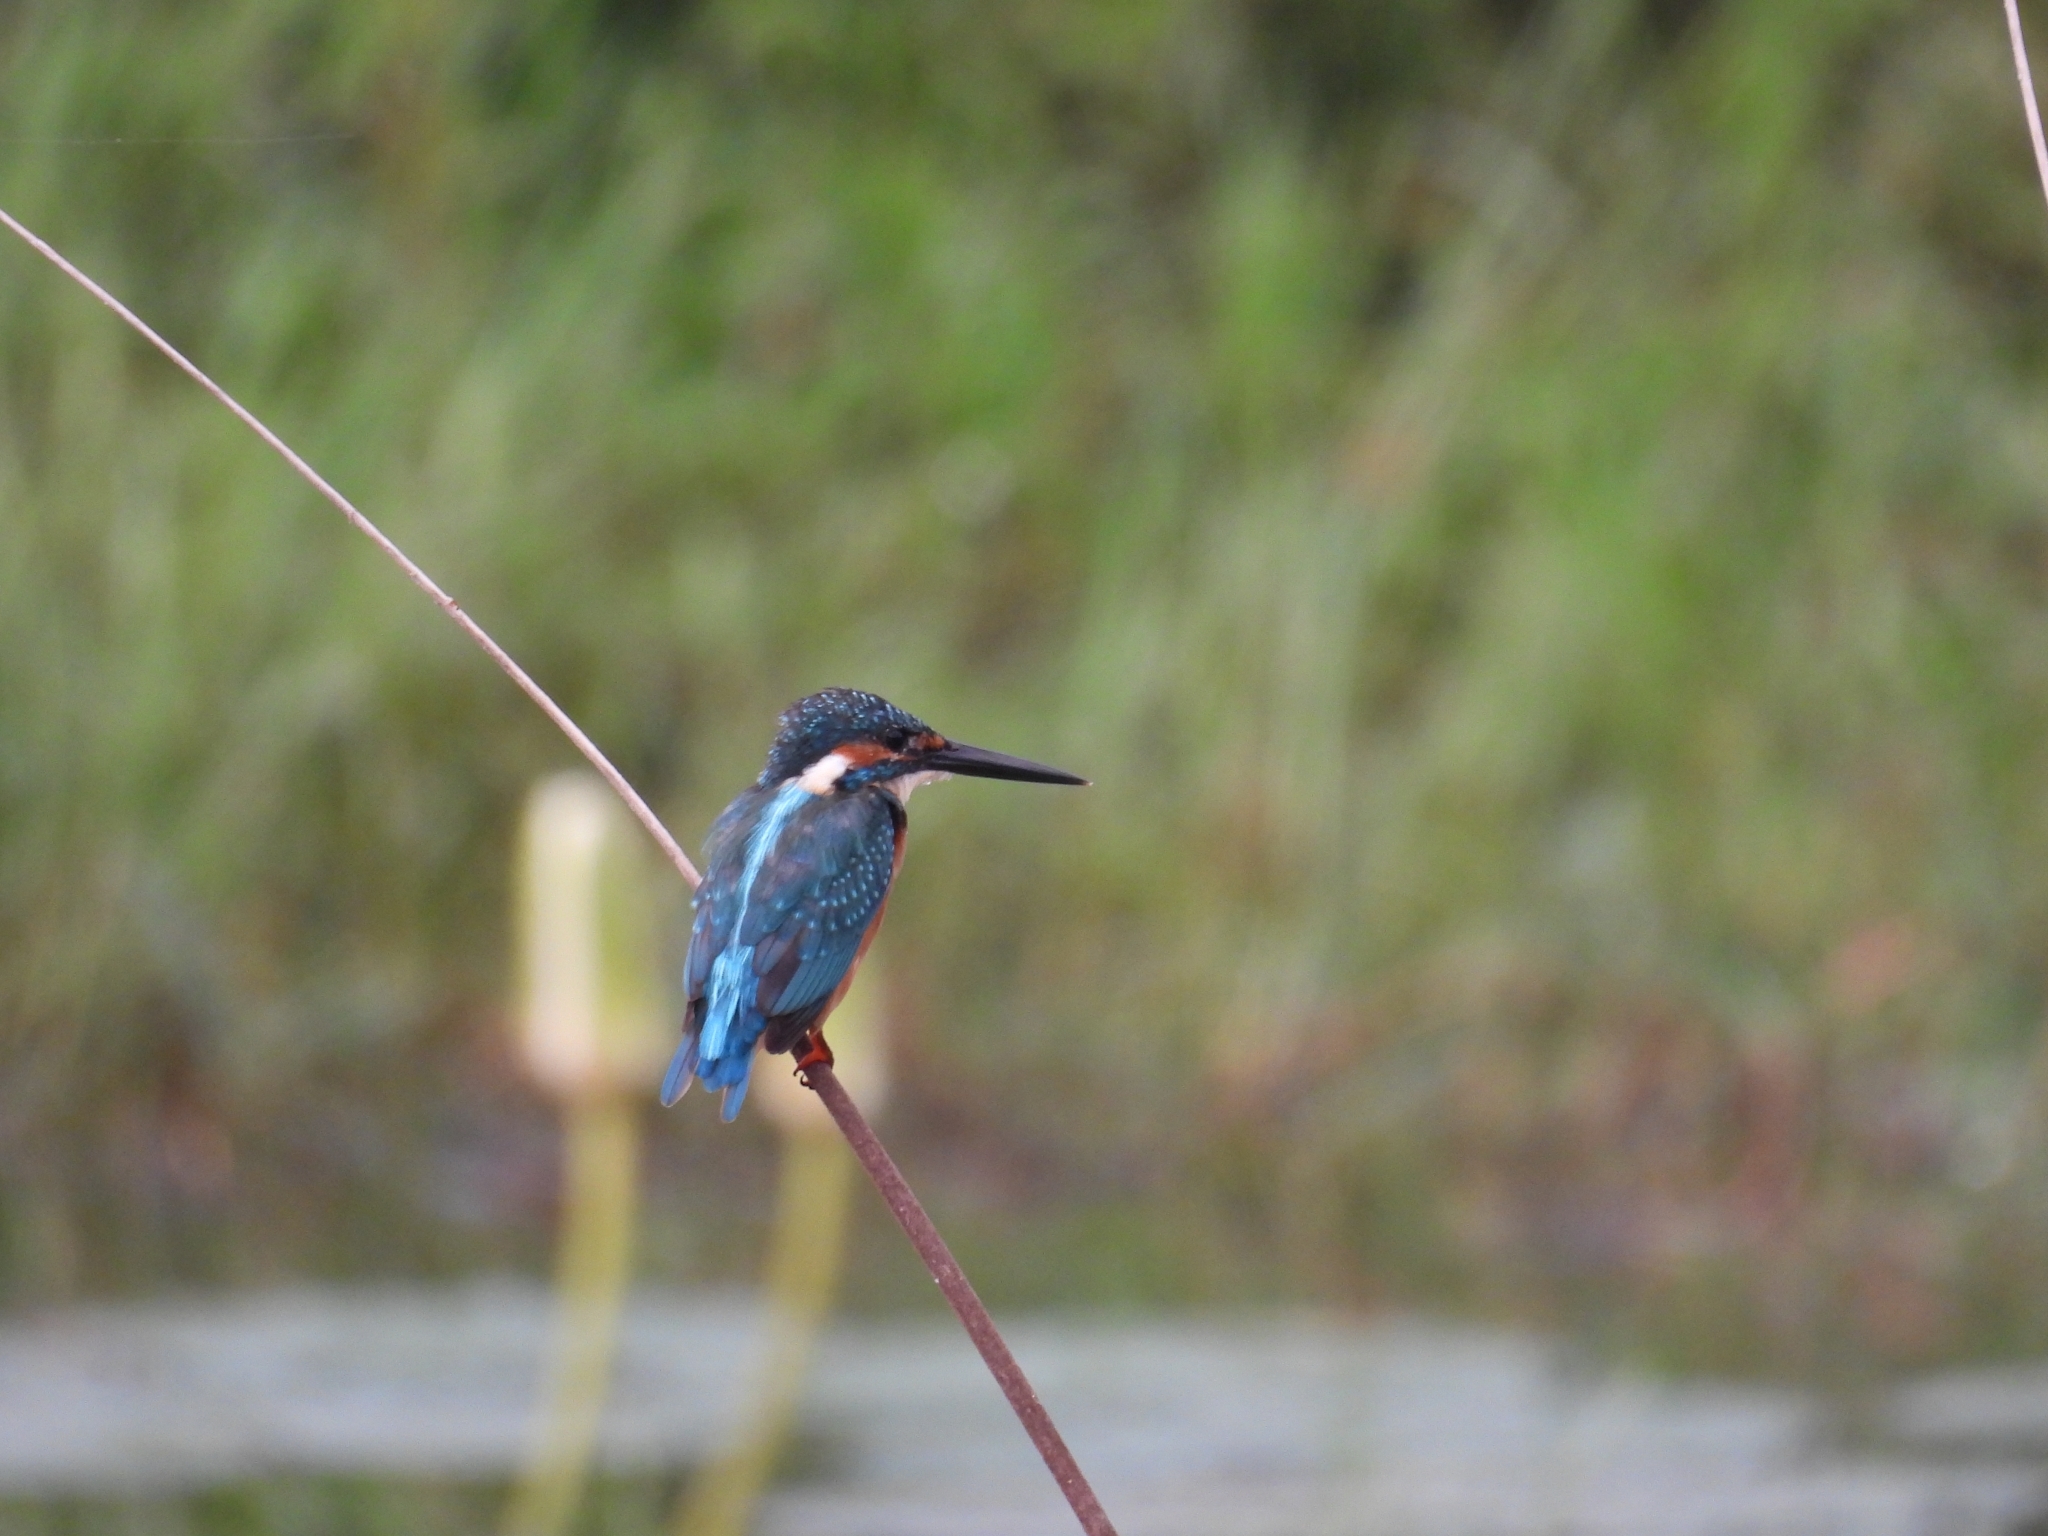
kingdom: Animalia
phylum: Chordata
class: Aves
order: Coraciiformes
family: Alcedinidae
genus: Alcedo
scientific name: Alcedo atthis
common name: Common kingfisher
